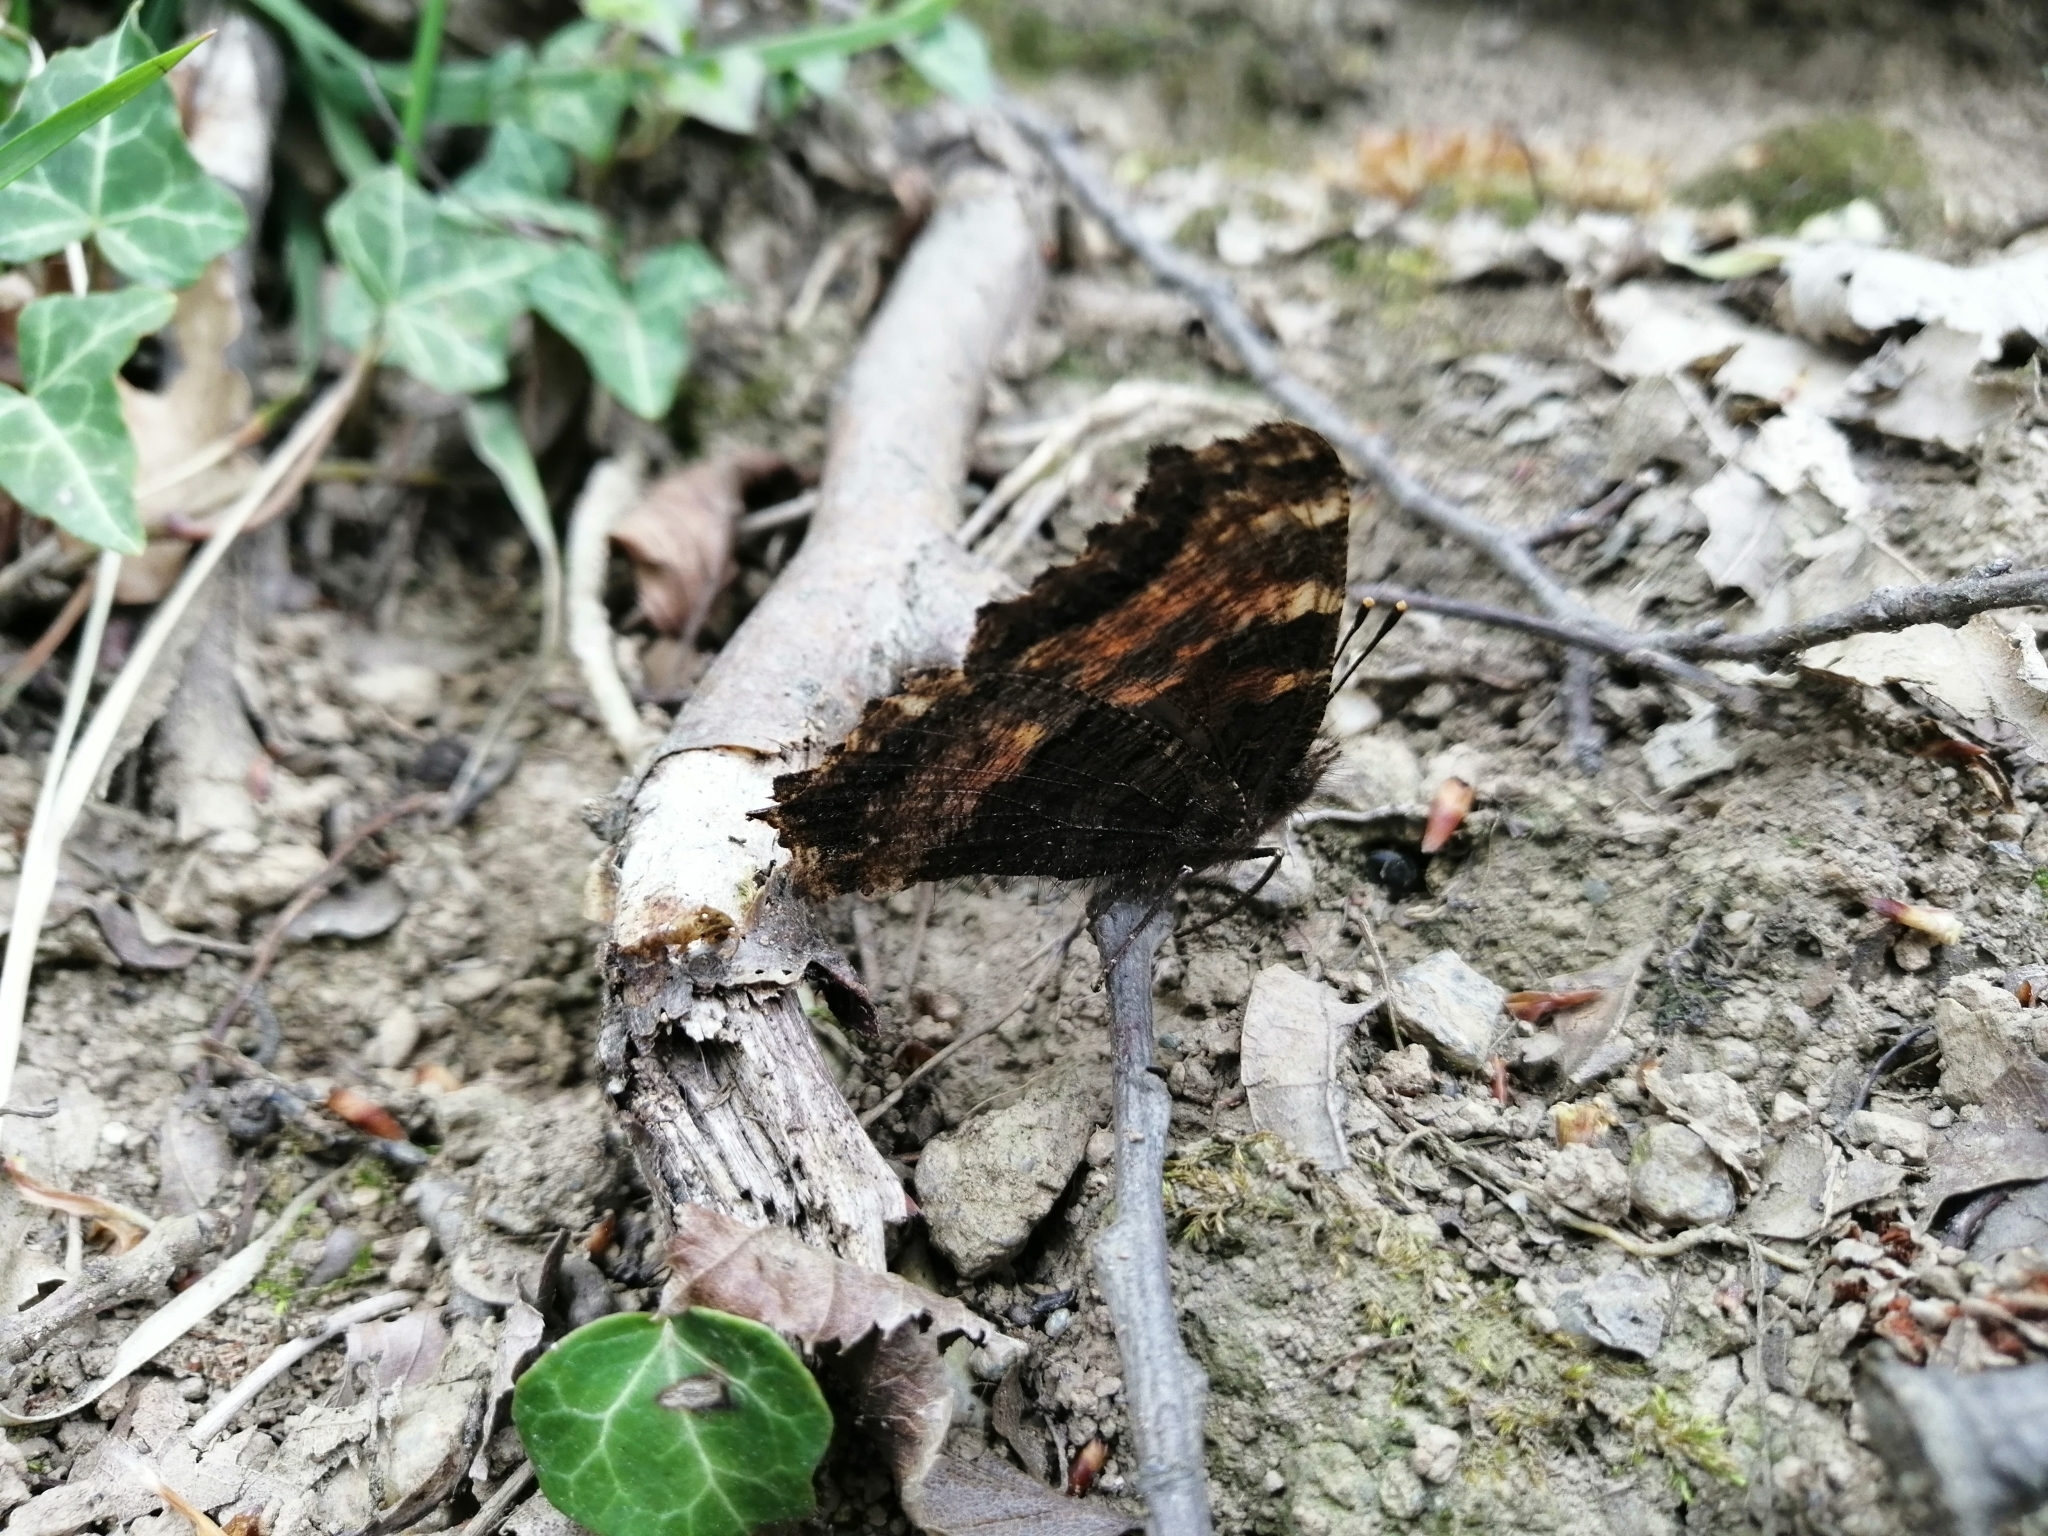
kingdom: Animalia
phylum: Arthropoda
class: Insecta
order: Lepidoptera
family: Nymphalidae
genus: Nymphalis
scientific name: Nymphalis polychloros
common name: Large tortoiseshell
